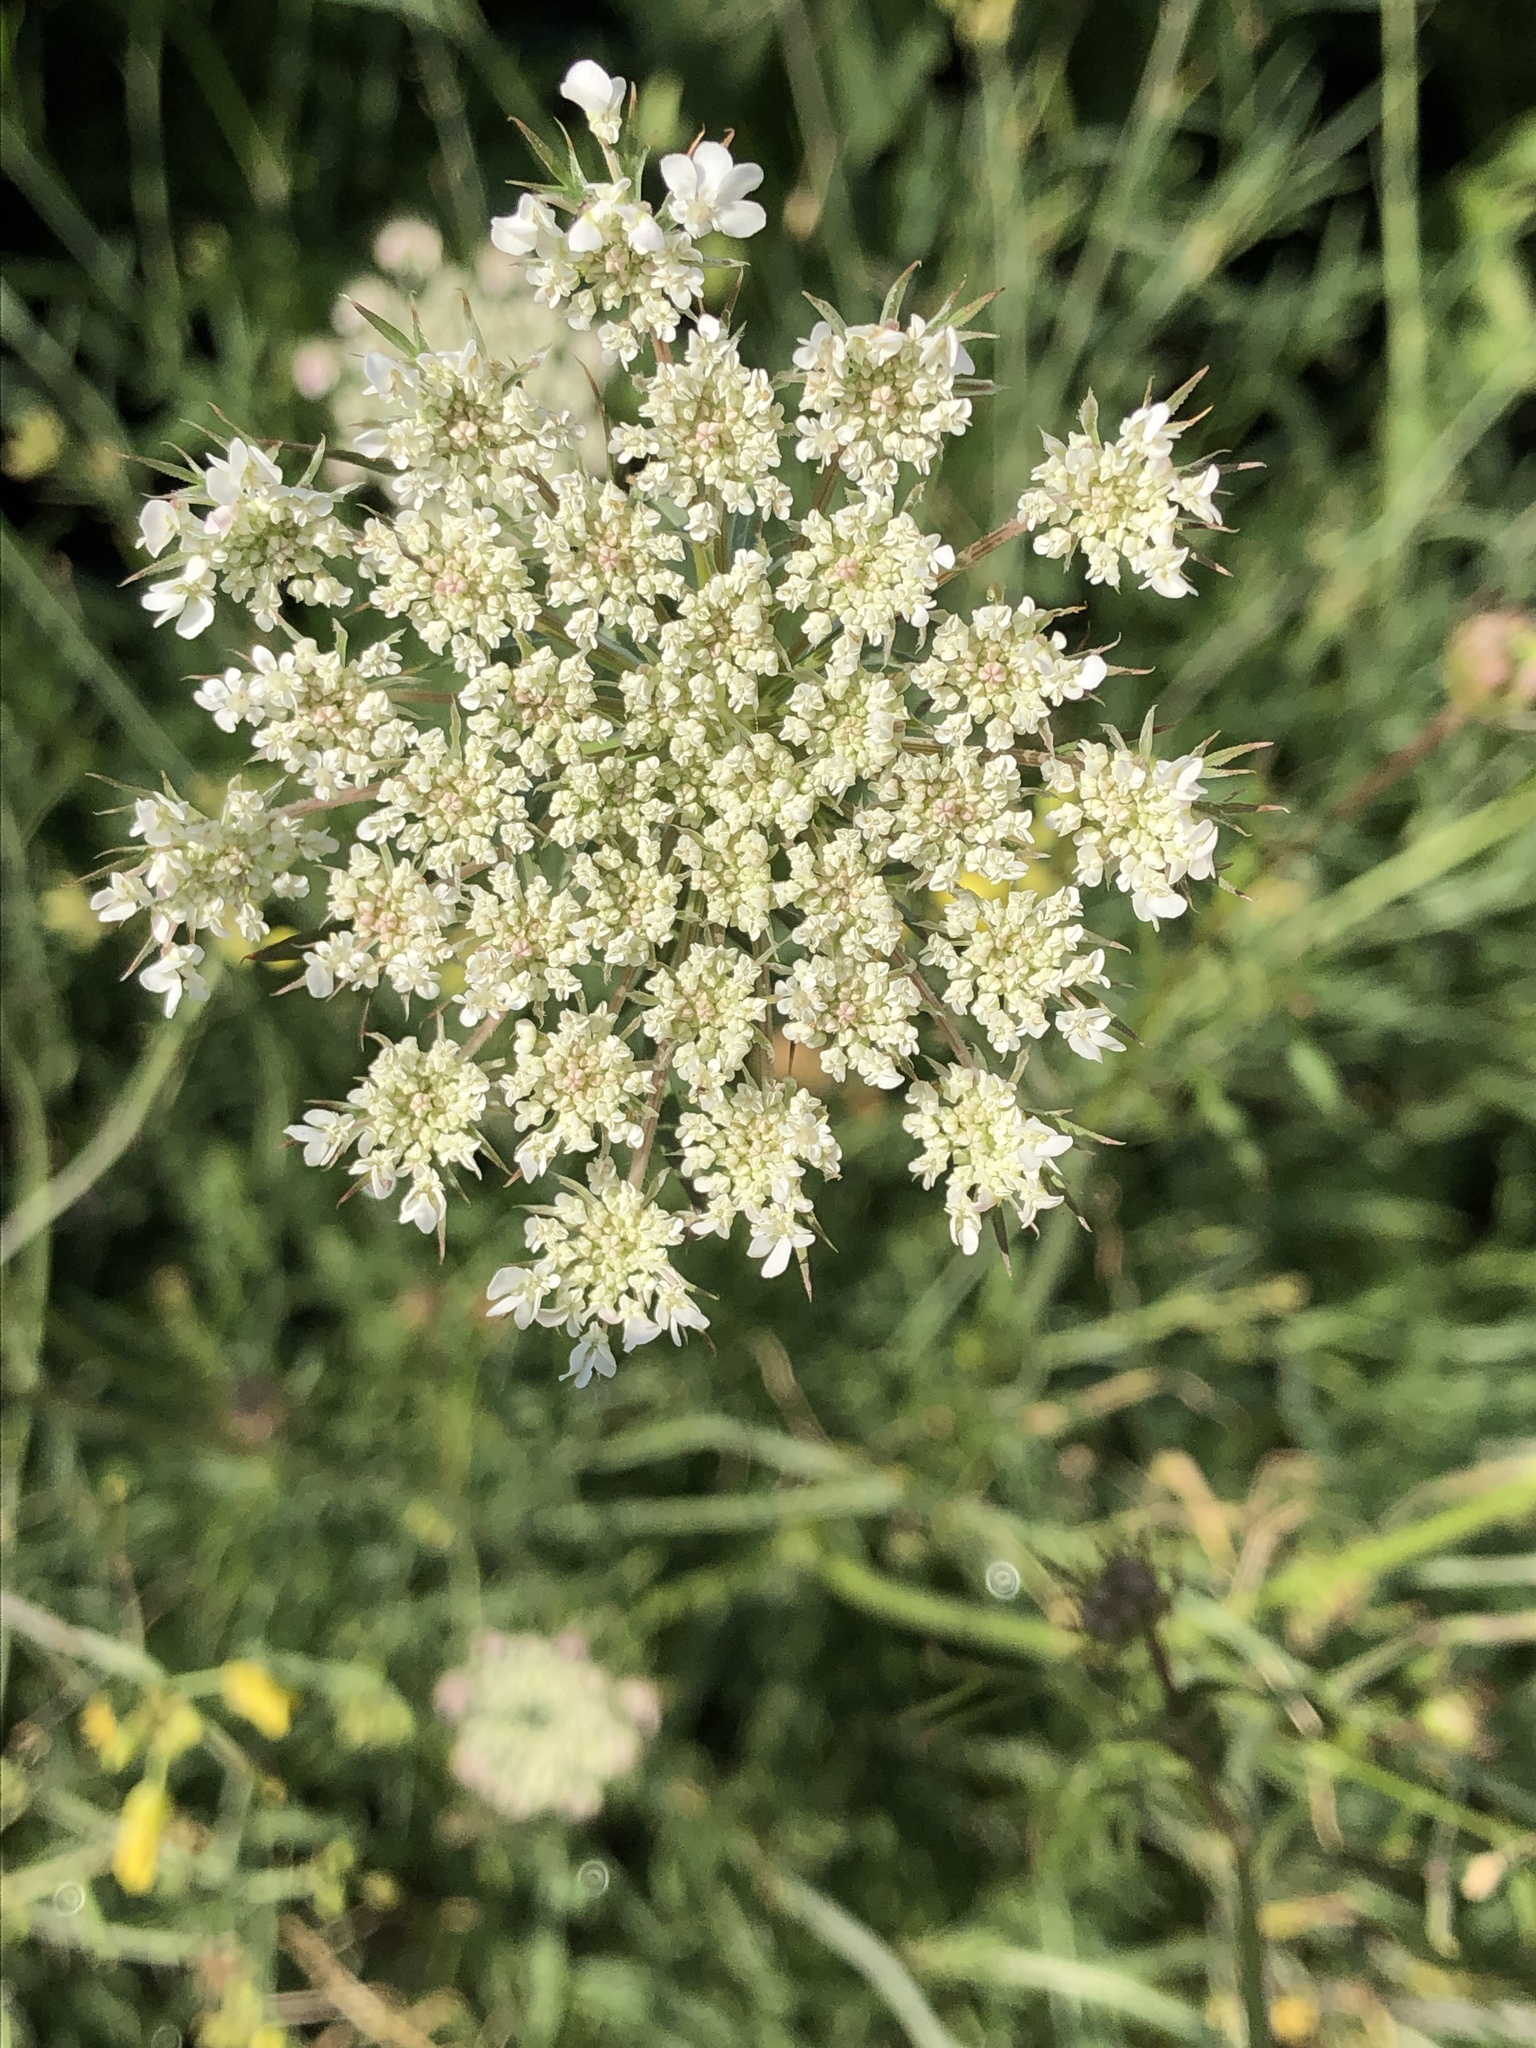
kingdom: Plantae
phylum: Tracheophyta
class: Magnoliopsida
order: Apiales
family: Apiaceae
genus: Daucus
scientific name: Daucus carota
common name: Wild carrot
